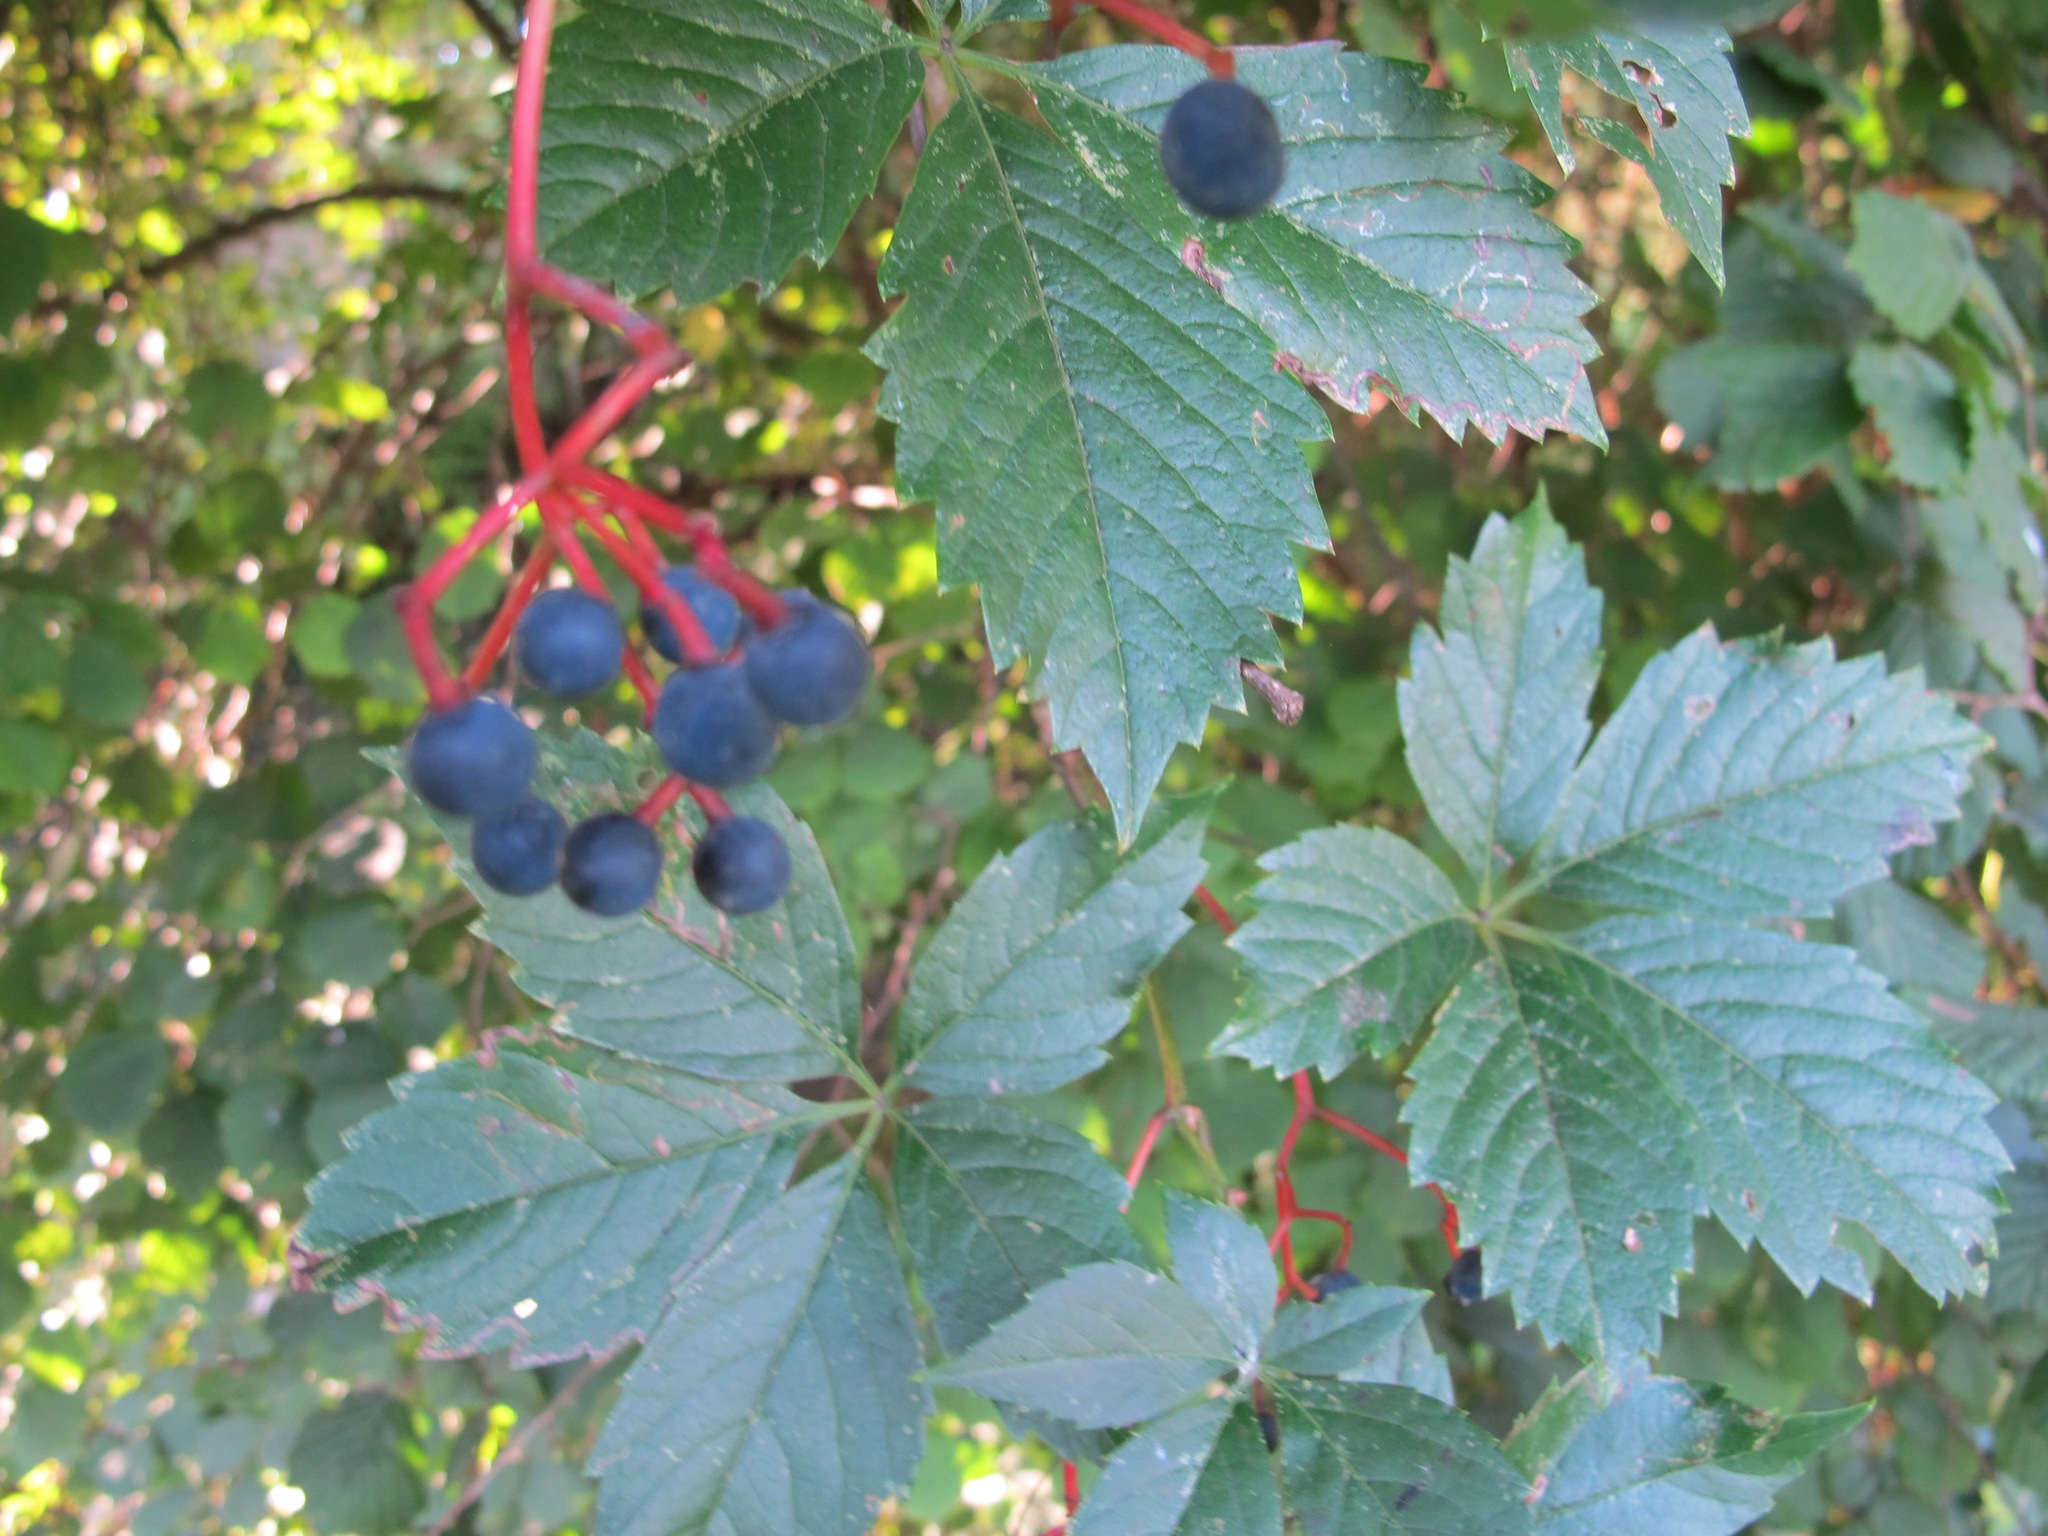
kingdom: Plantae
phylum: Tracheophyta
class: Magnoliopsida
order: Vitales
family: Vitaceae
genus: Parthenocissus
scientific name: Parthenocissus inserta
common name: False virginia-creeper
